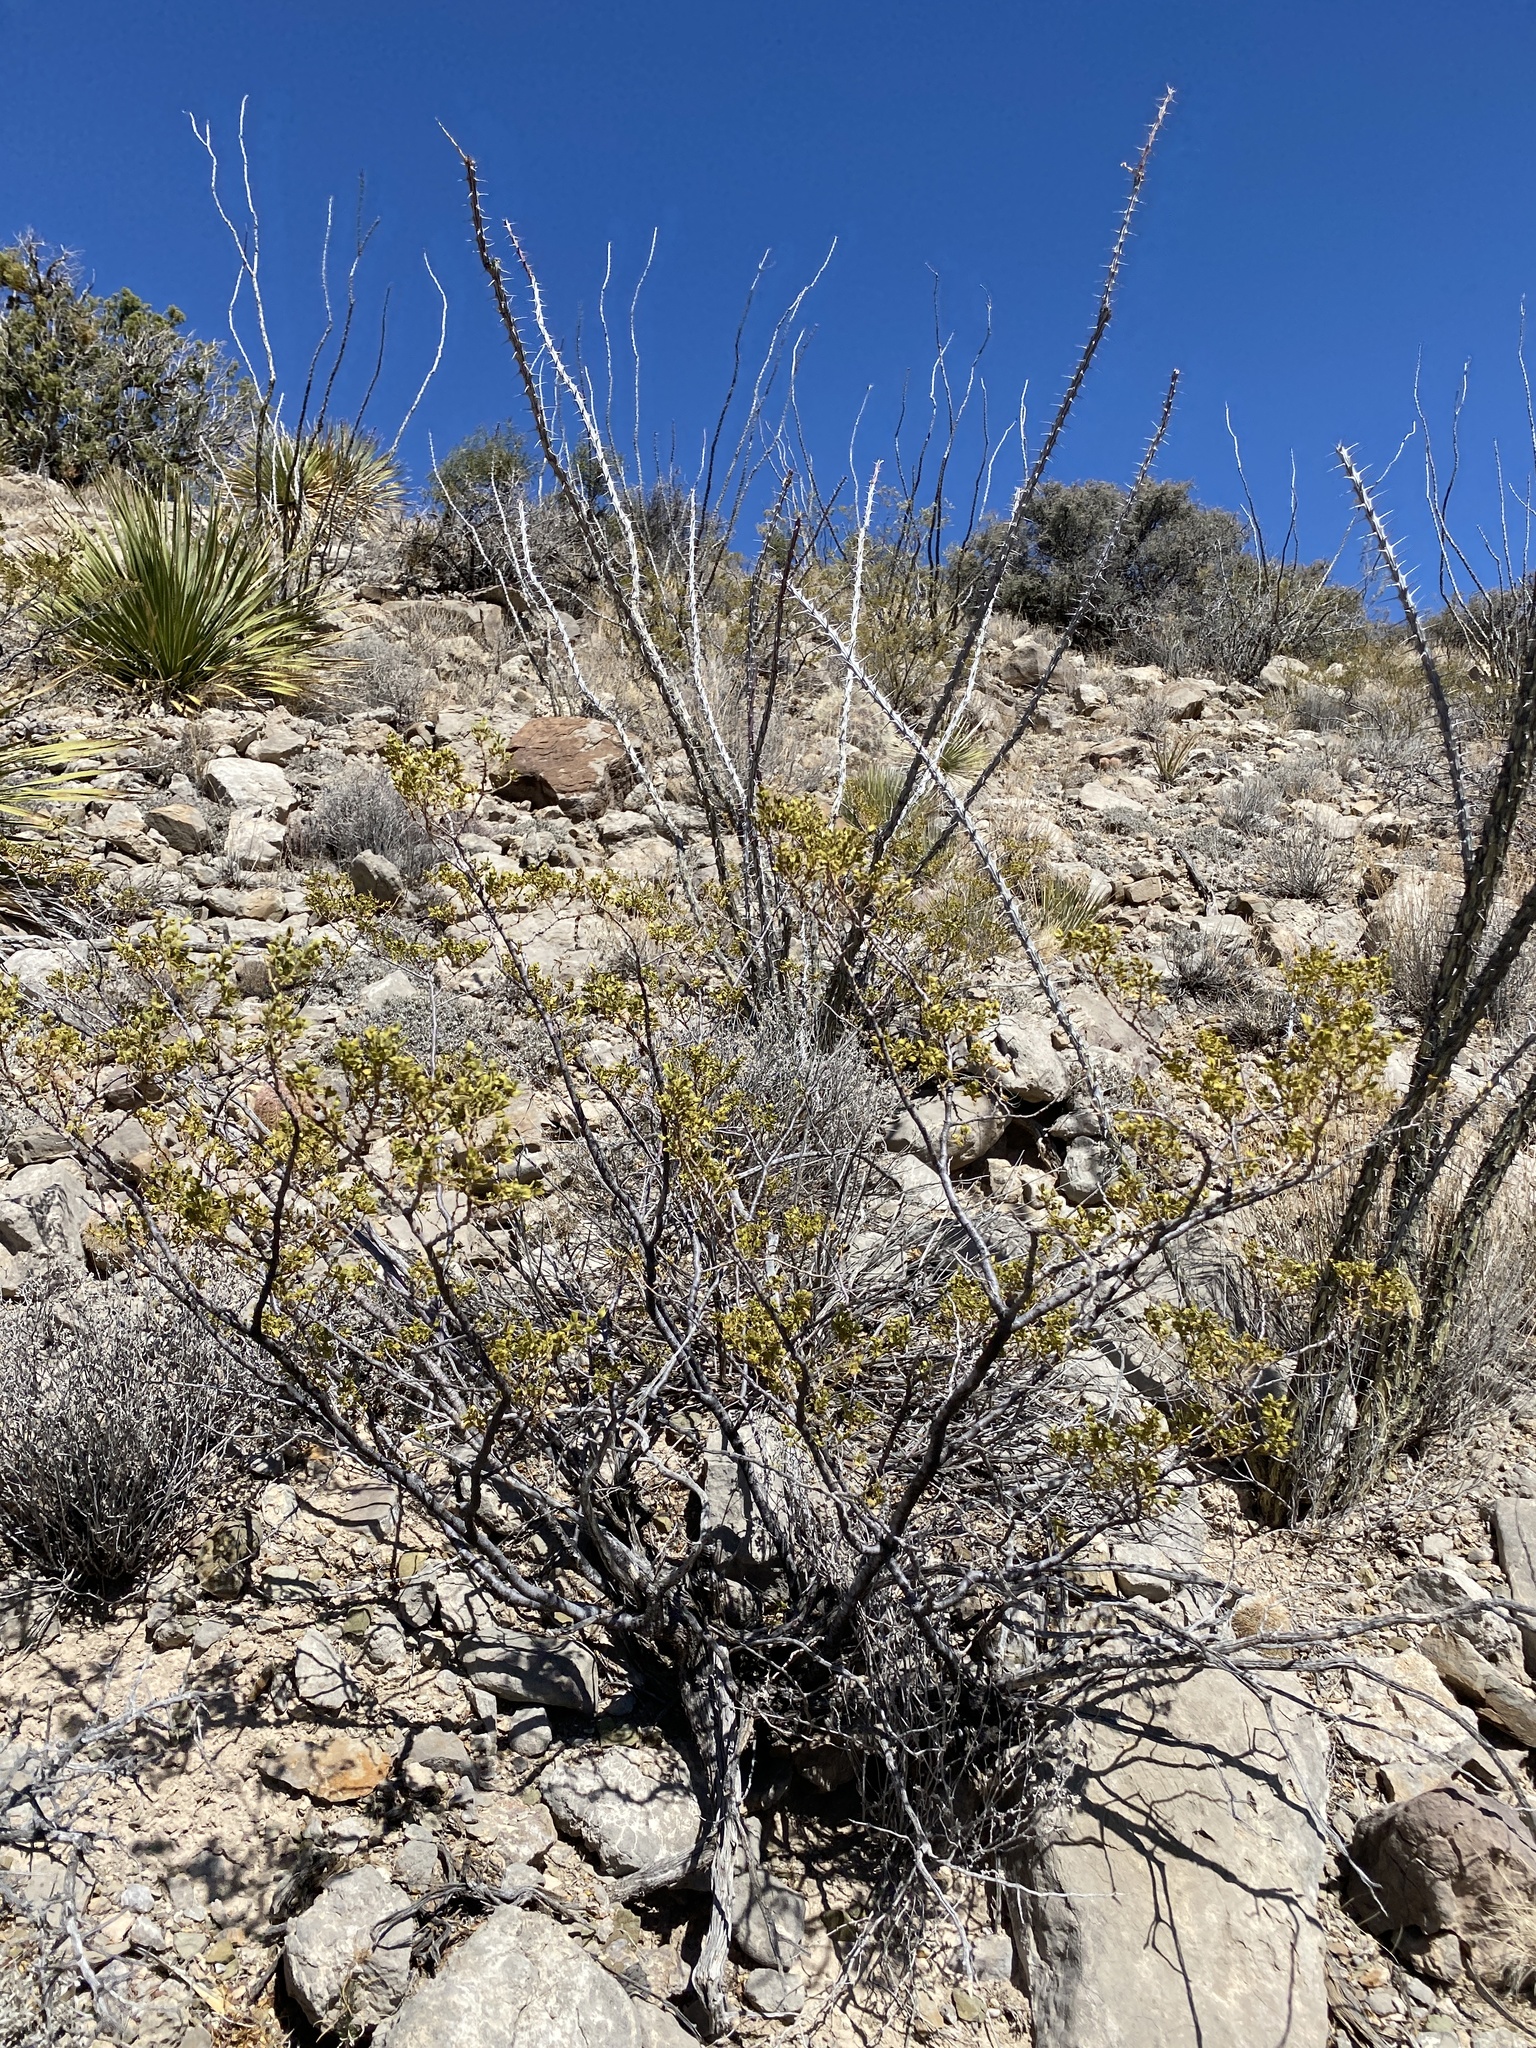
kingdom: Plantae
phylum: Tracheophyta
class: Magnoliopsida
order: Ericales
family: Fouquieriaceae
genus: Fouquieria
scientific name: Fouquieria splendens
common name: Vine-cactus
